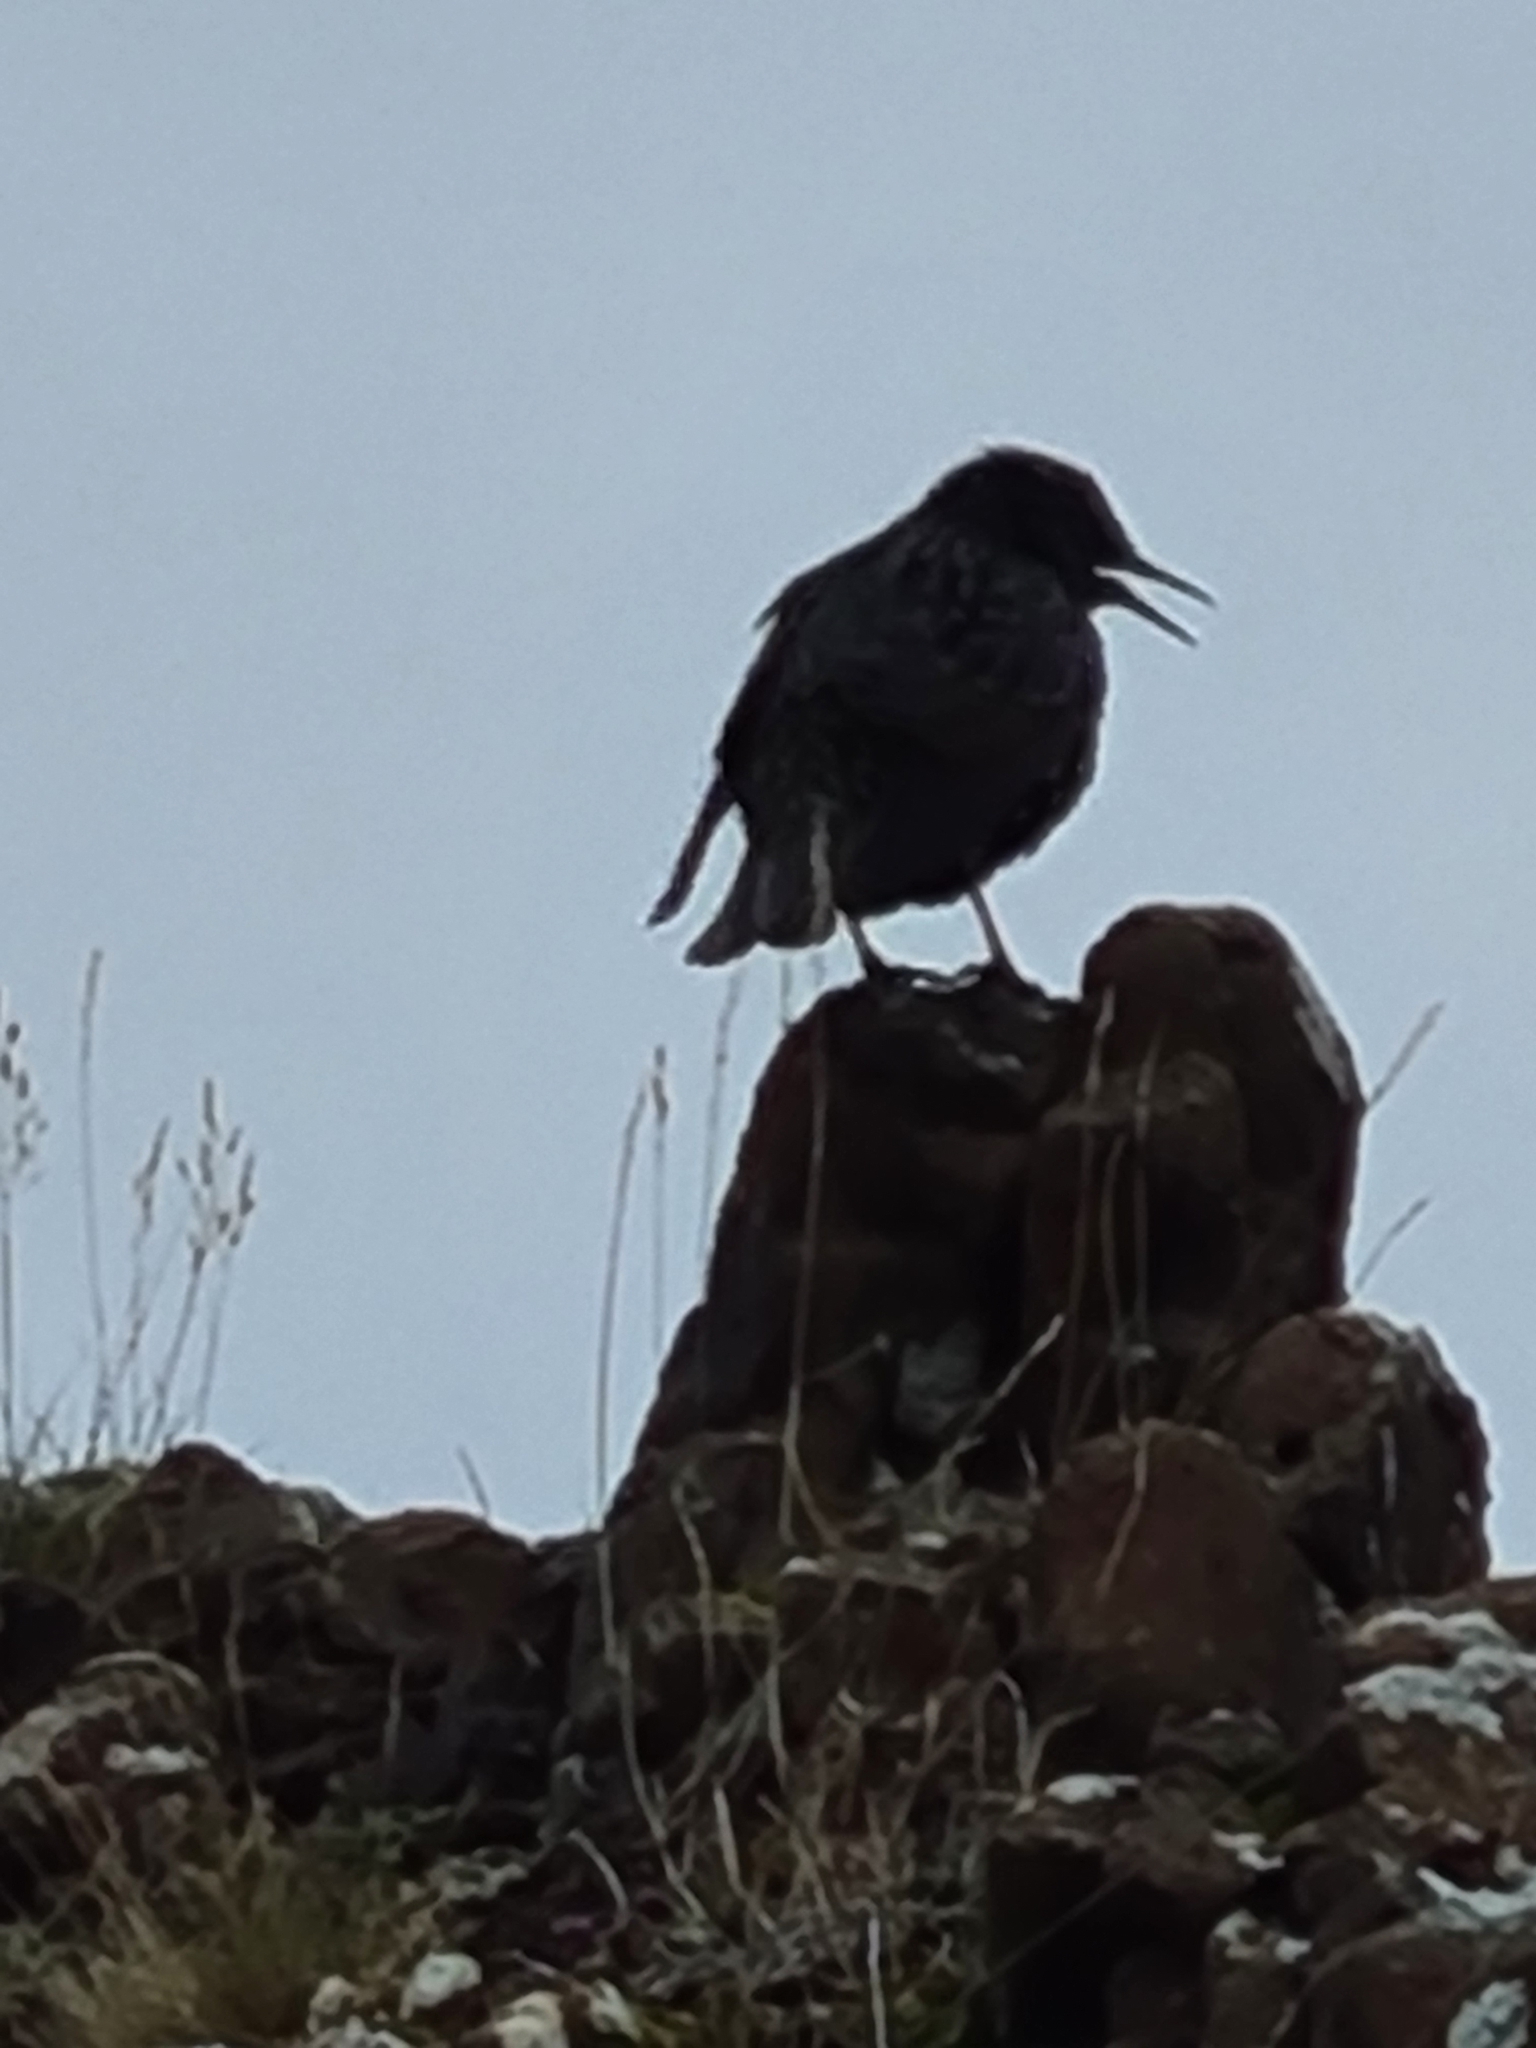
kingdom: Animalia
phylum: Chordata
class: Aves
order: Passeriformes
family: Sturnidae
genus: Sturnus
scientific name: Sturnus vulgaris
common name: Common starling
